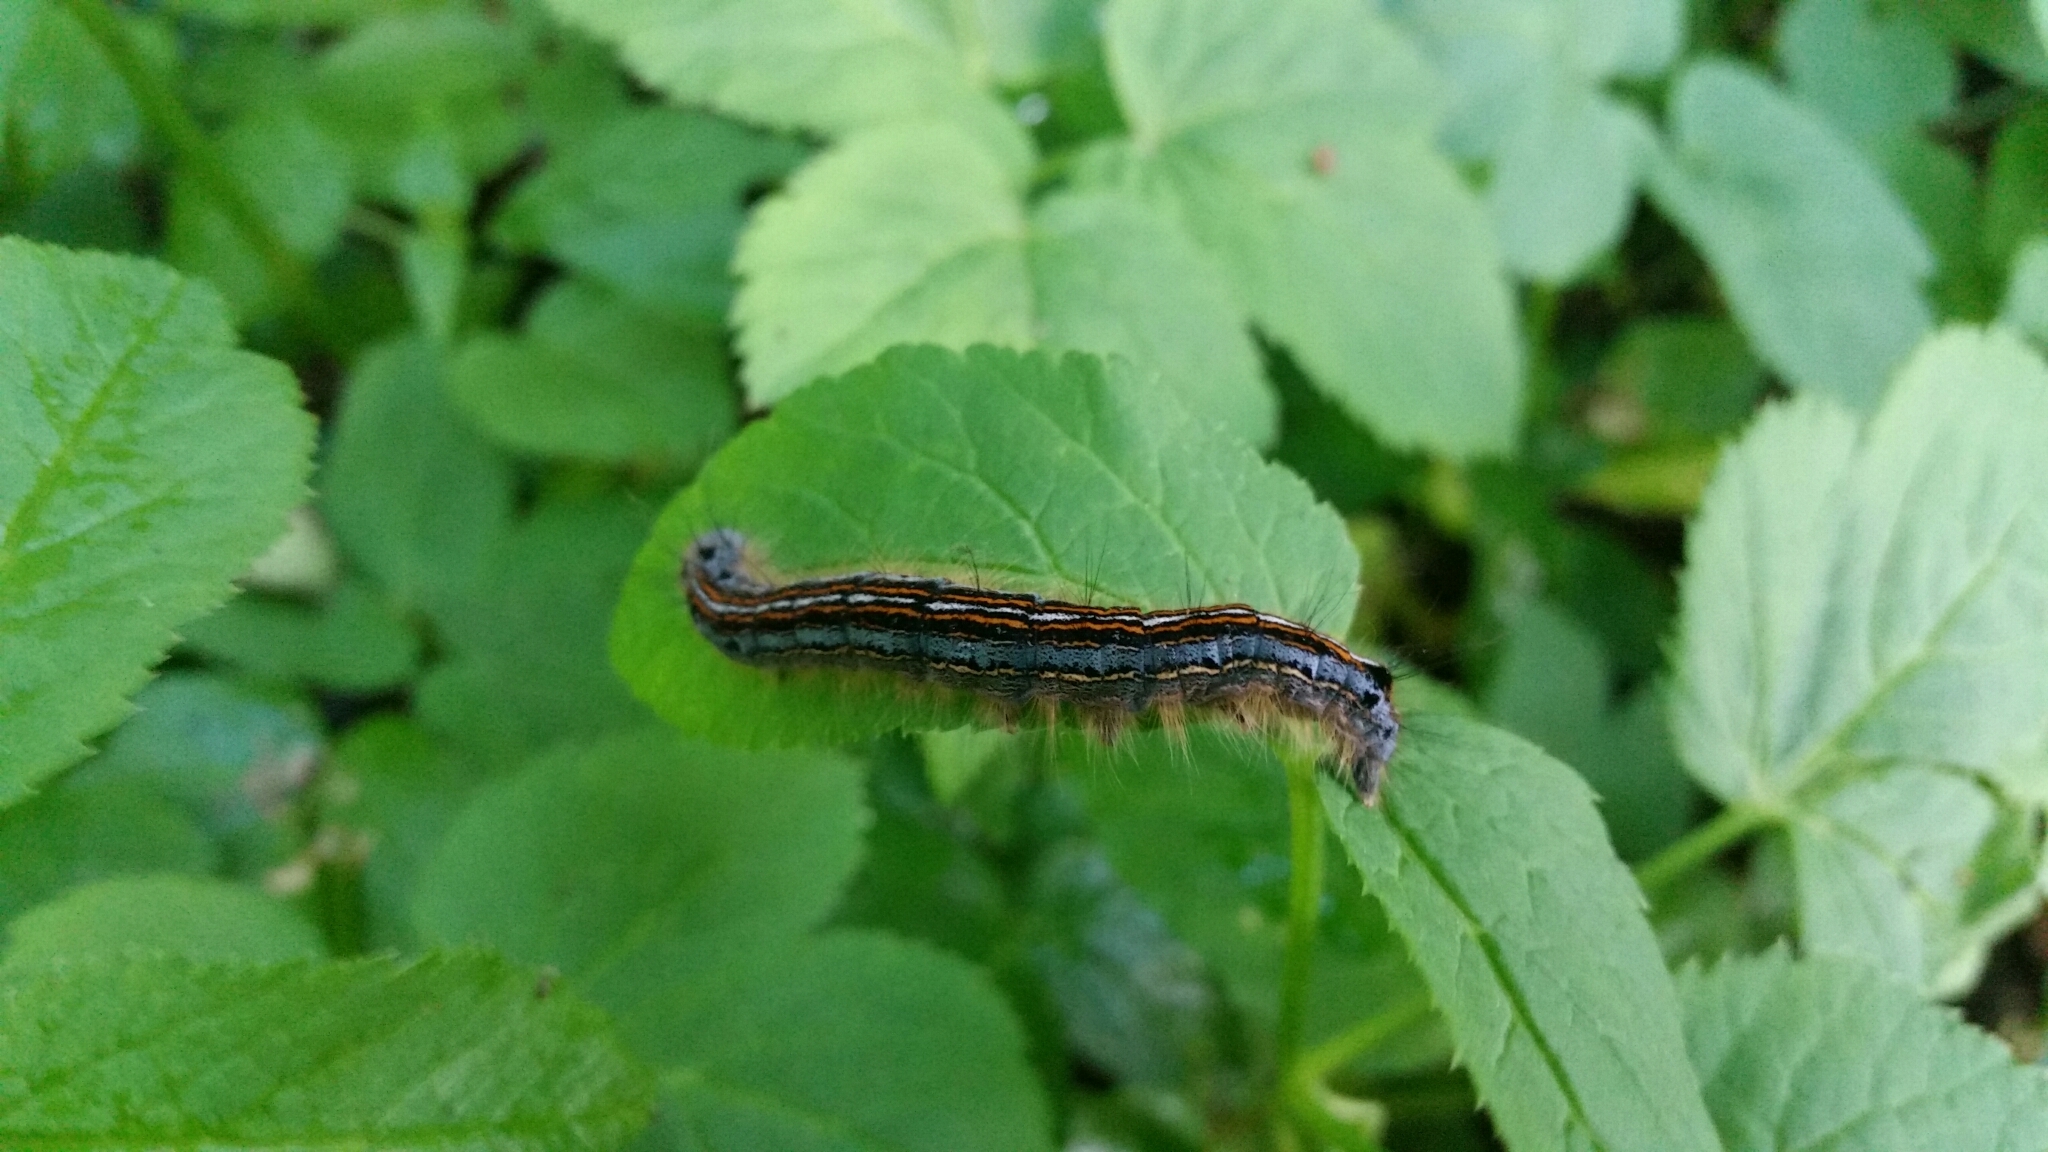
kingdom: Animalia
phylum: Arthropoda
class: Insecta
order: Lepidoptera
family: Lasiocampidae
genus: Malacosoma
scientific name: Malacosoma neustria
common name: The lackey
